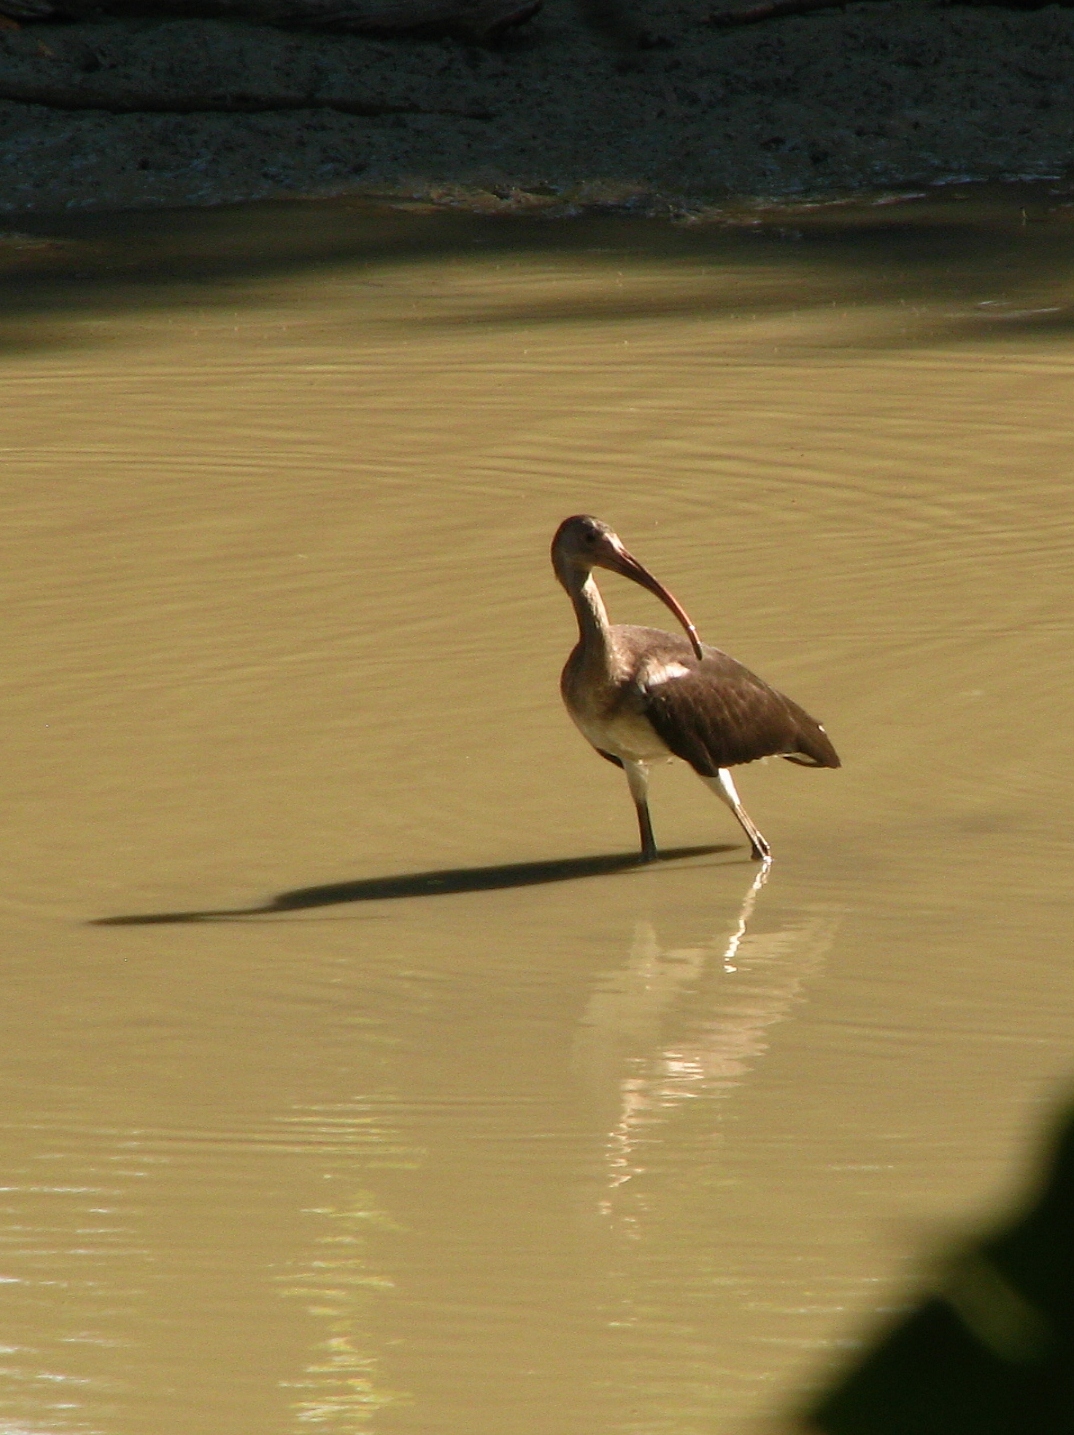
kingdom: Animalia
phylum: Chordata
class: Aves
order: Pelecaniformes
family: Threskiornithidae
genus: Eudocimus
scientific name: Eudocimus albus
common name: White ibis
